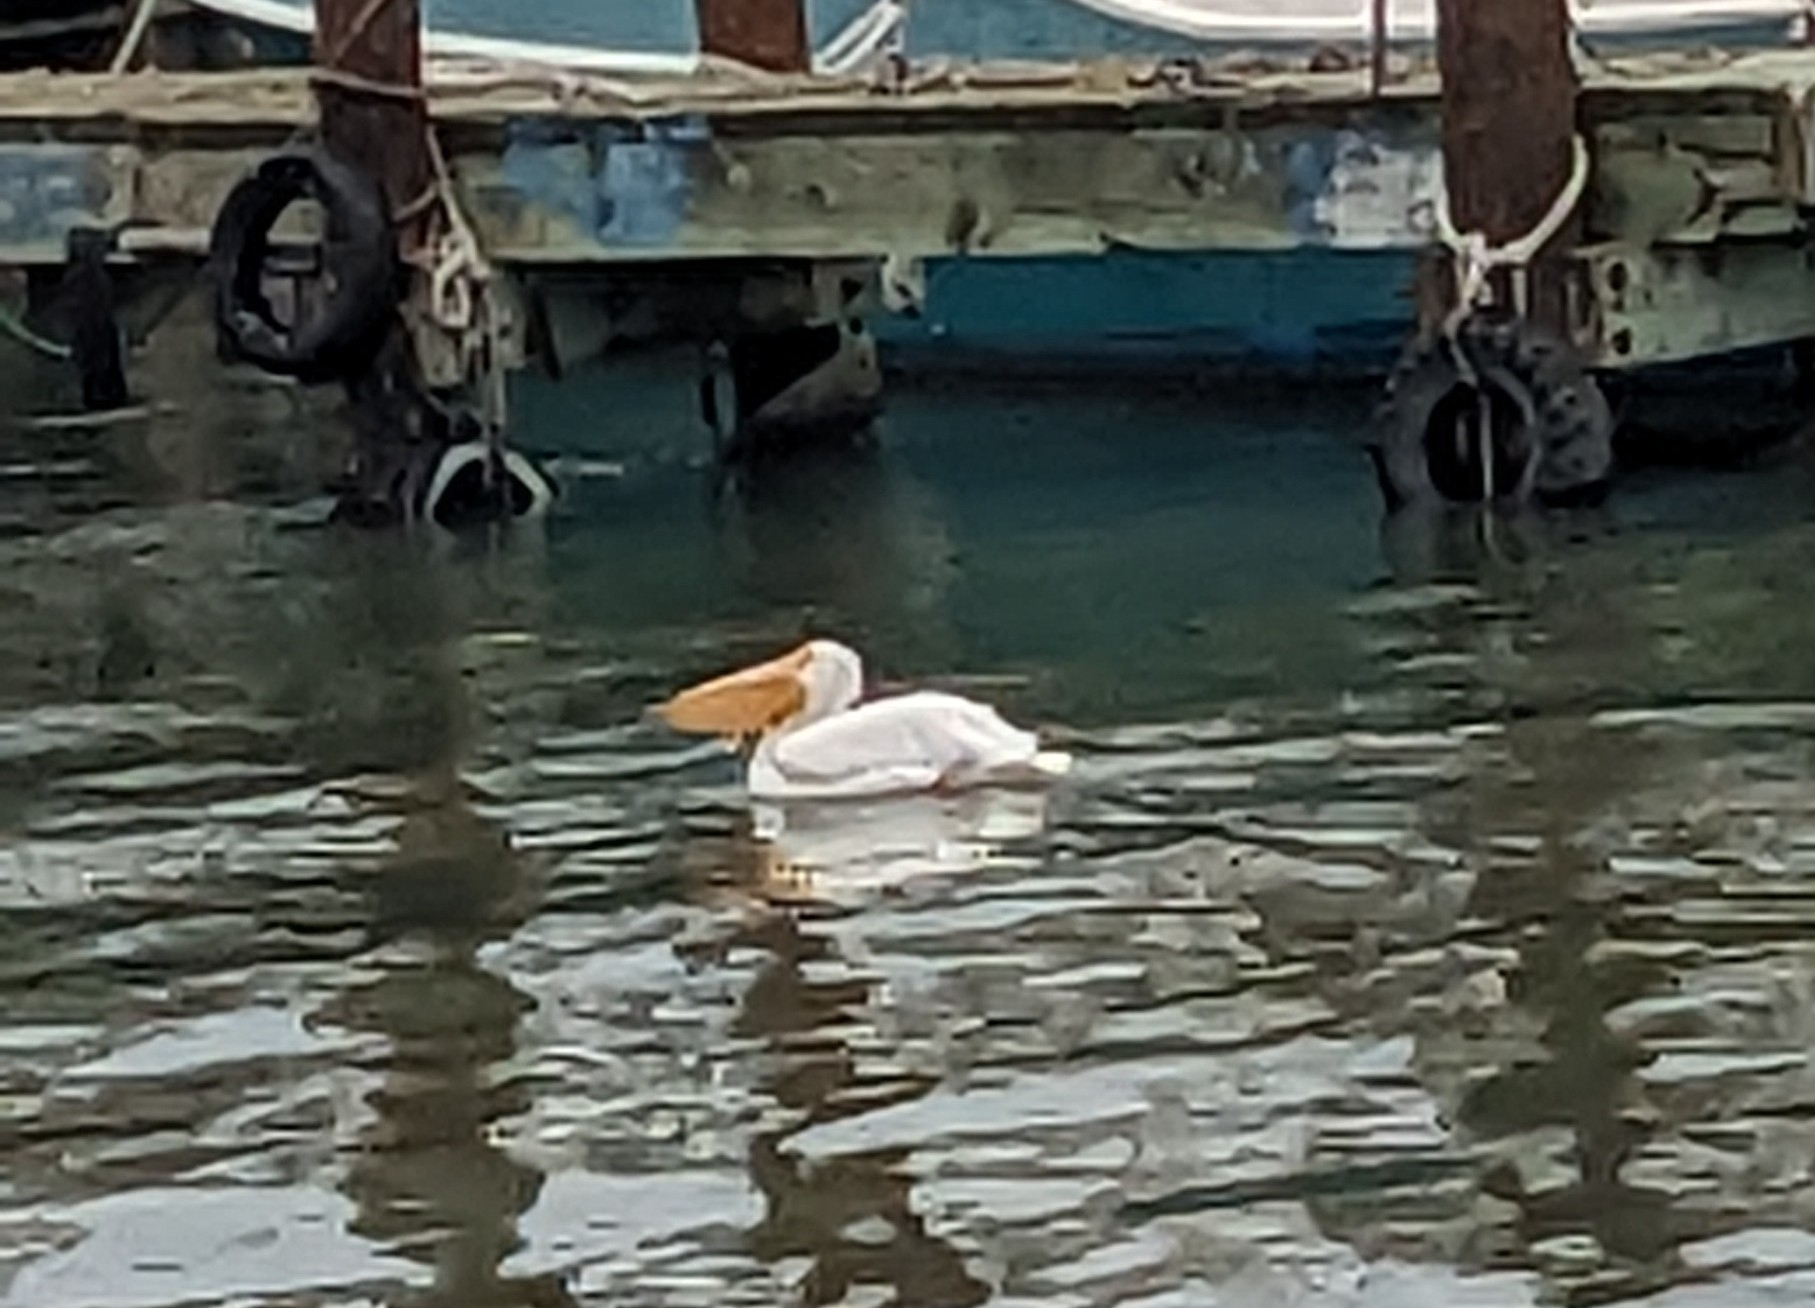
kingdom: Animalia
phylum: Chordata
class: Aves
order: Pelecaniformes
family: Pelecanidae
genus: Pelecanus
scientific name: Pelecanus erythrorhynchos
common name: American white pelican
